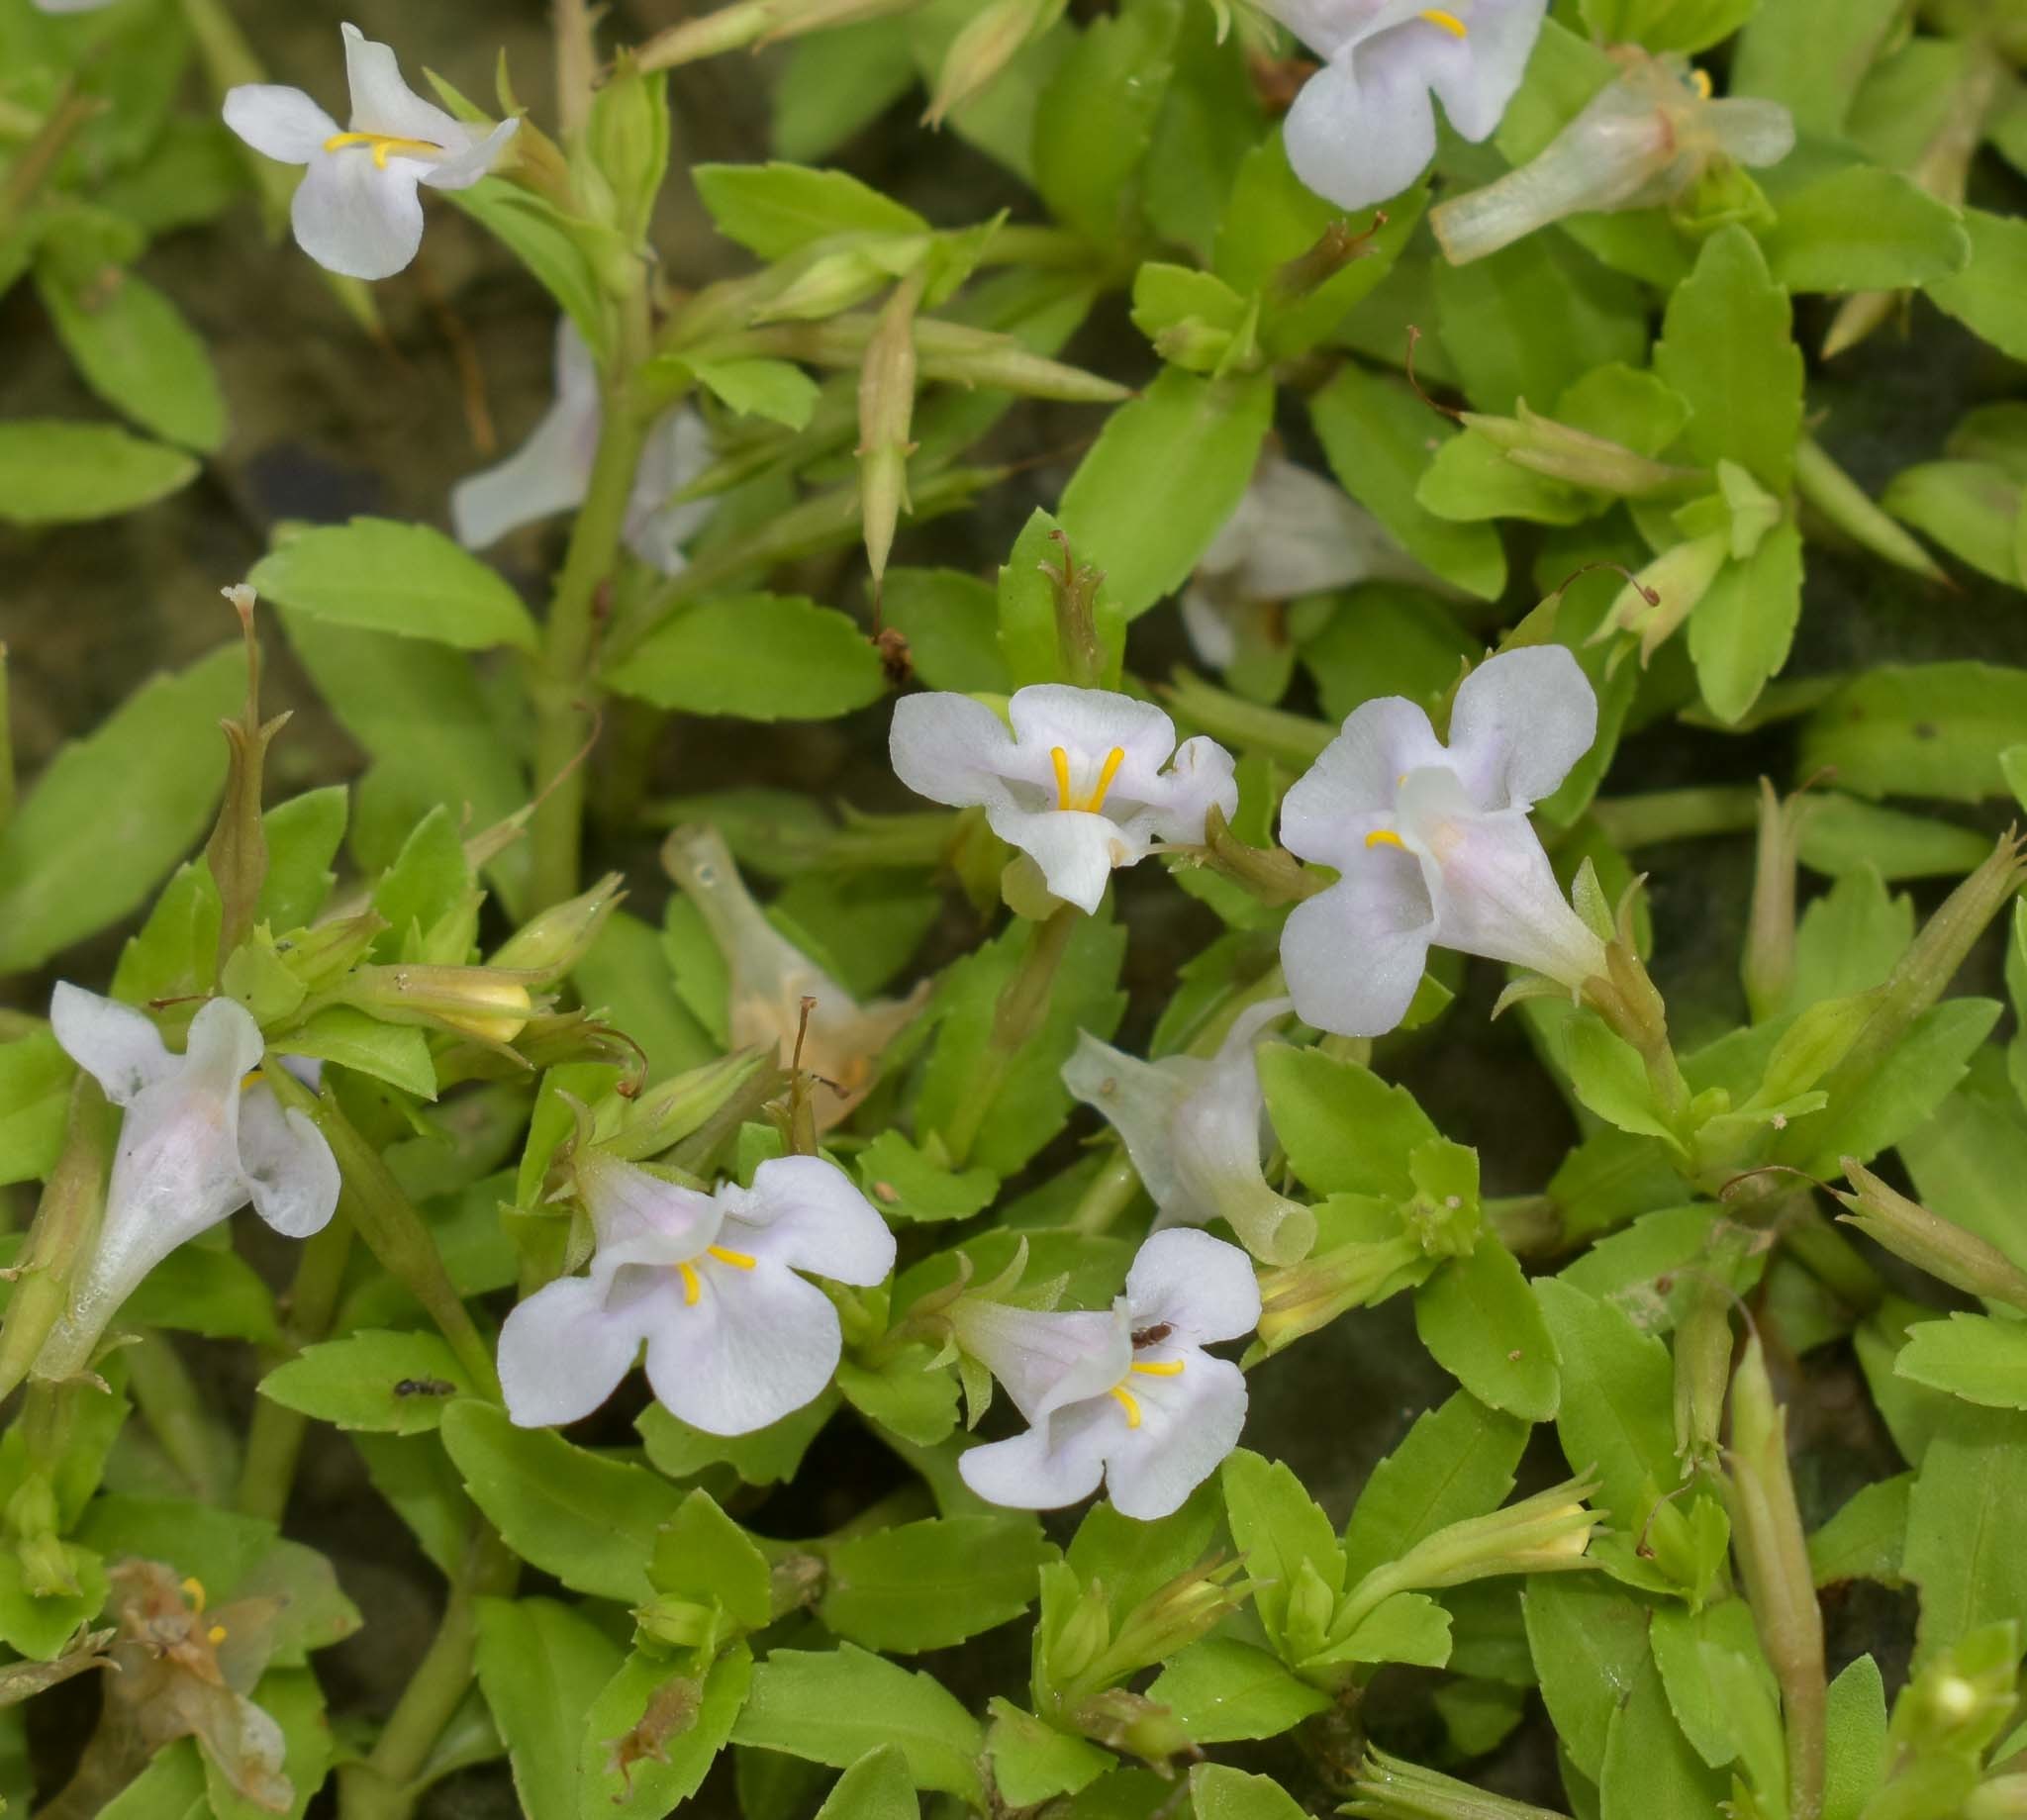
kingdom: Plantae
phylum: Tracheophyta
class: Magnoliopsida
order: Lamiales
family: Linderniaceae
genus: Bonnaya
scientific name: Bonnaya antipoda
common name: Sparrow false pimpernel
